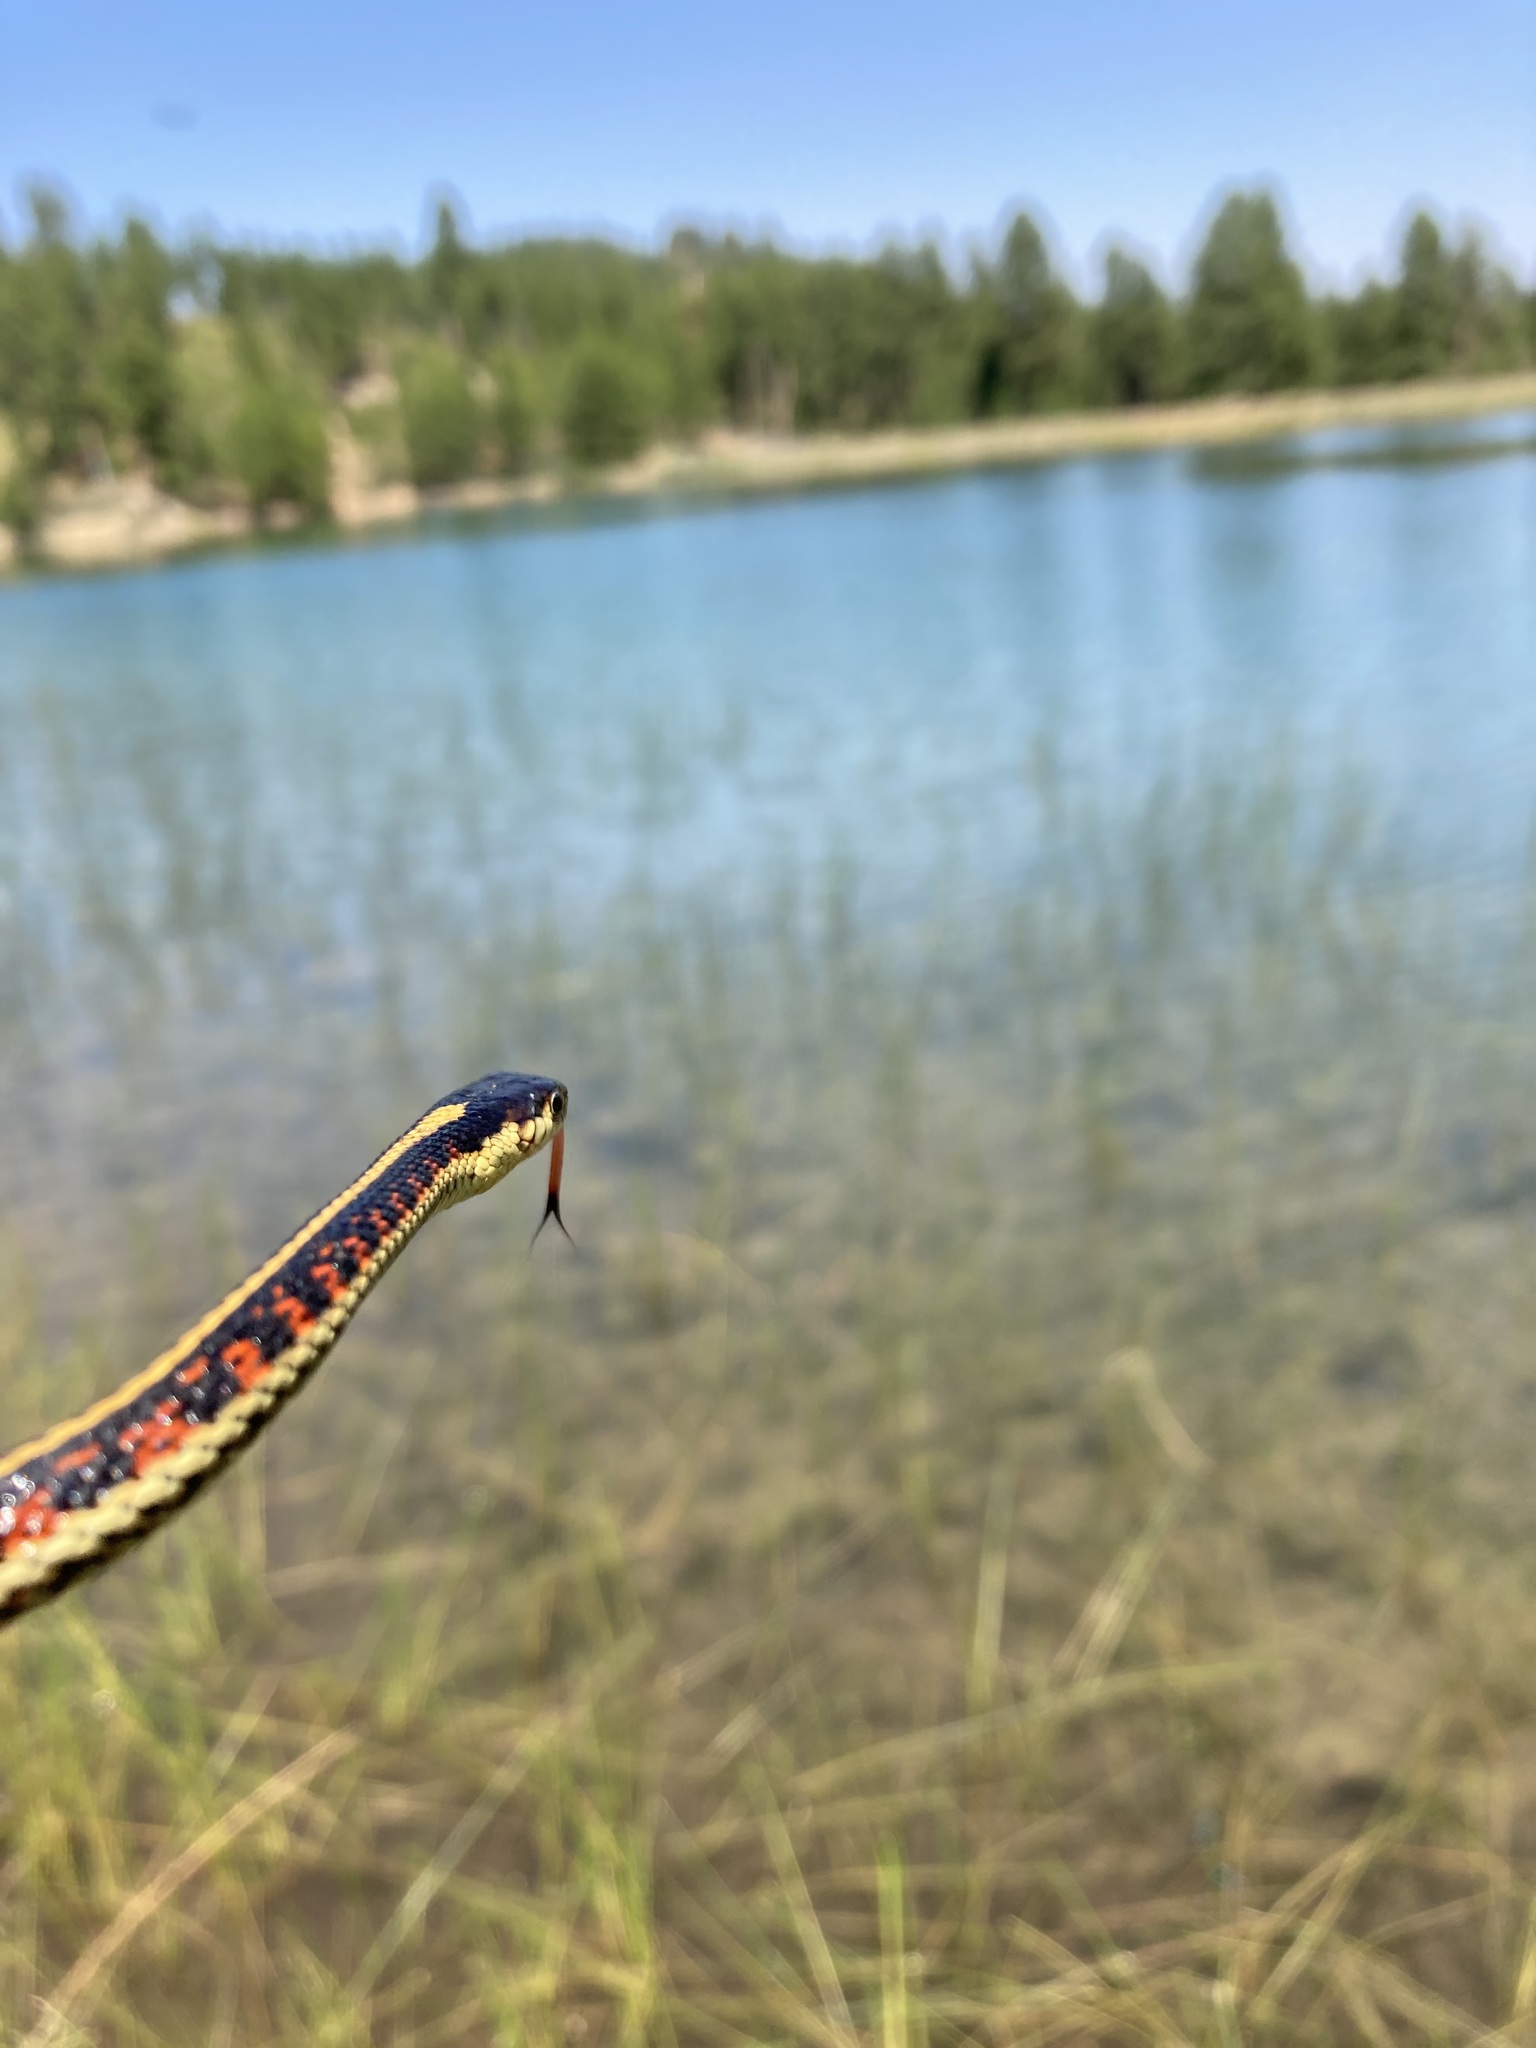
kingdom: Animalia
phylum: Chordata
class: Squamata
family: Colubridae
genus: Thamnophis
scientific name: Thamnophis sirtalis
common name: Common garter snake
